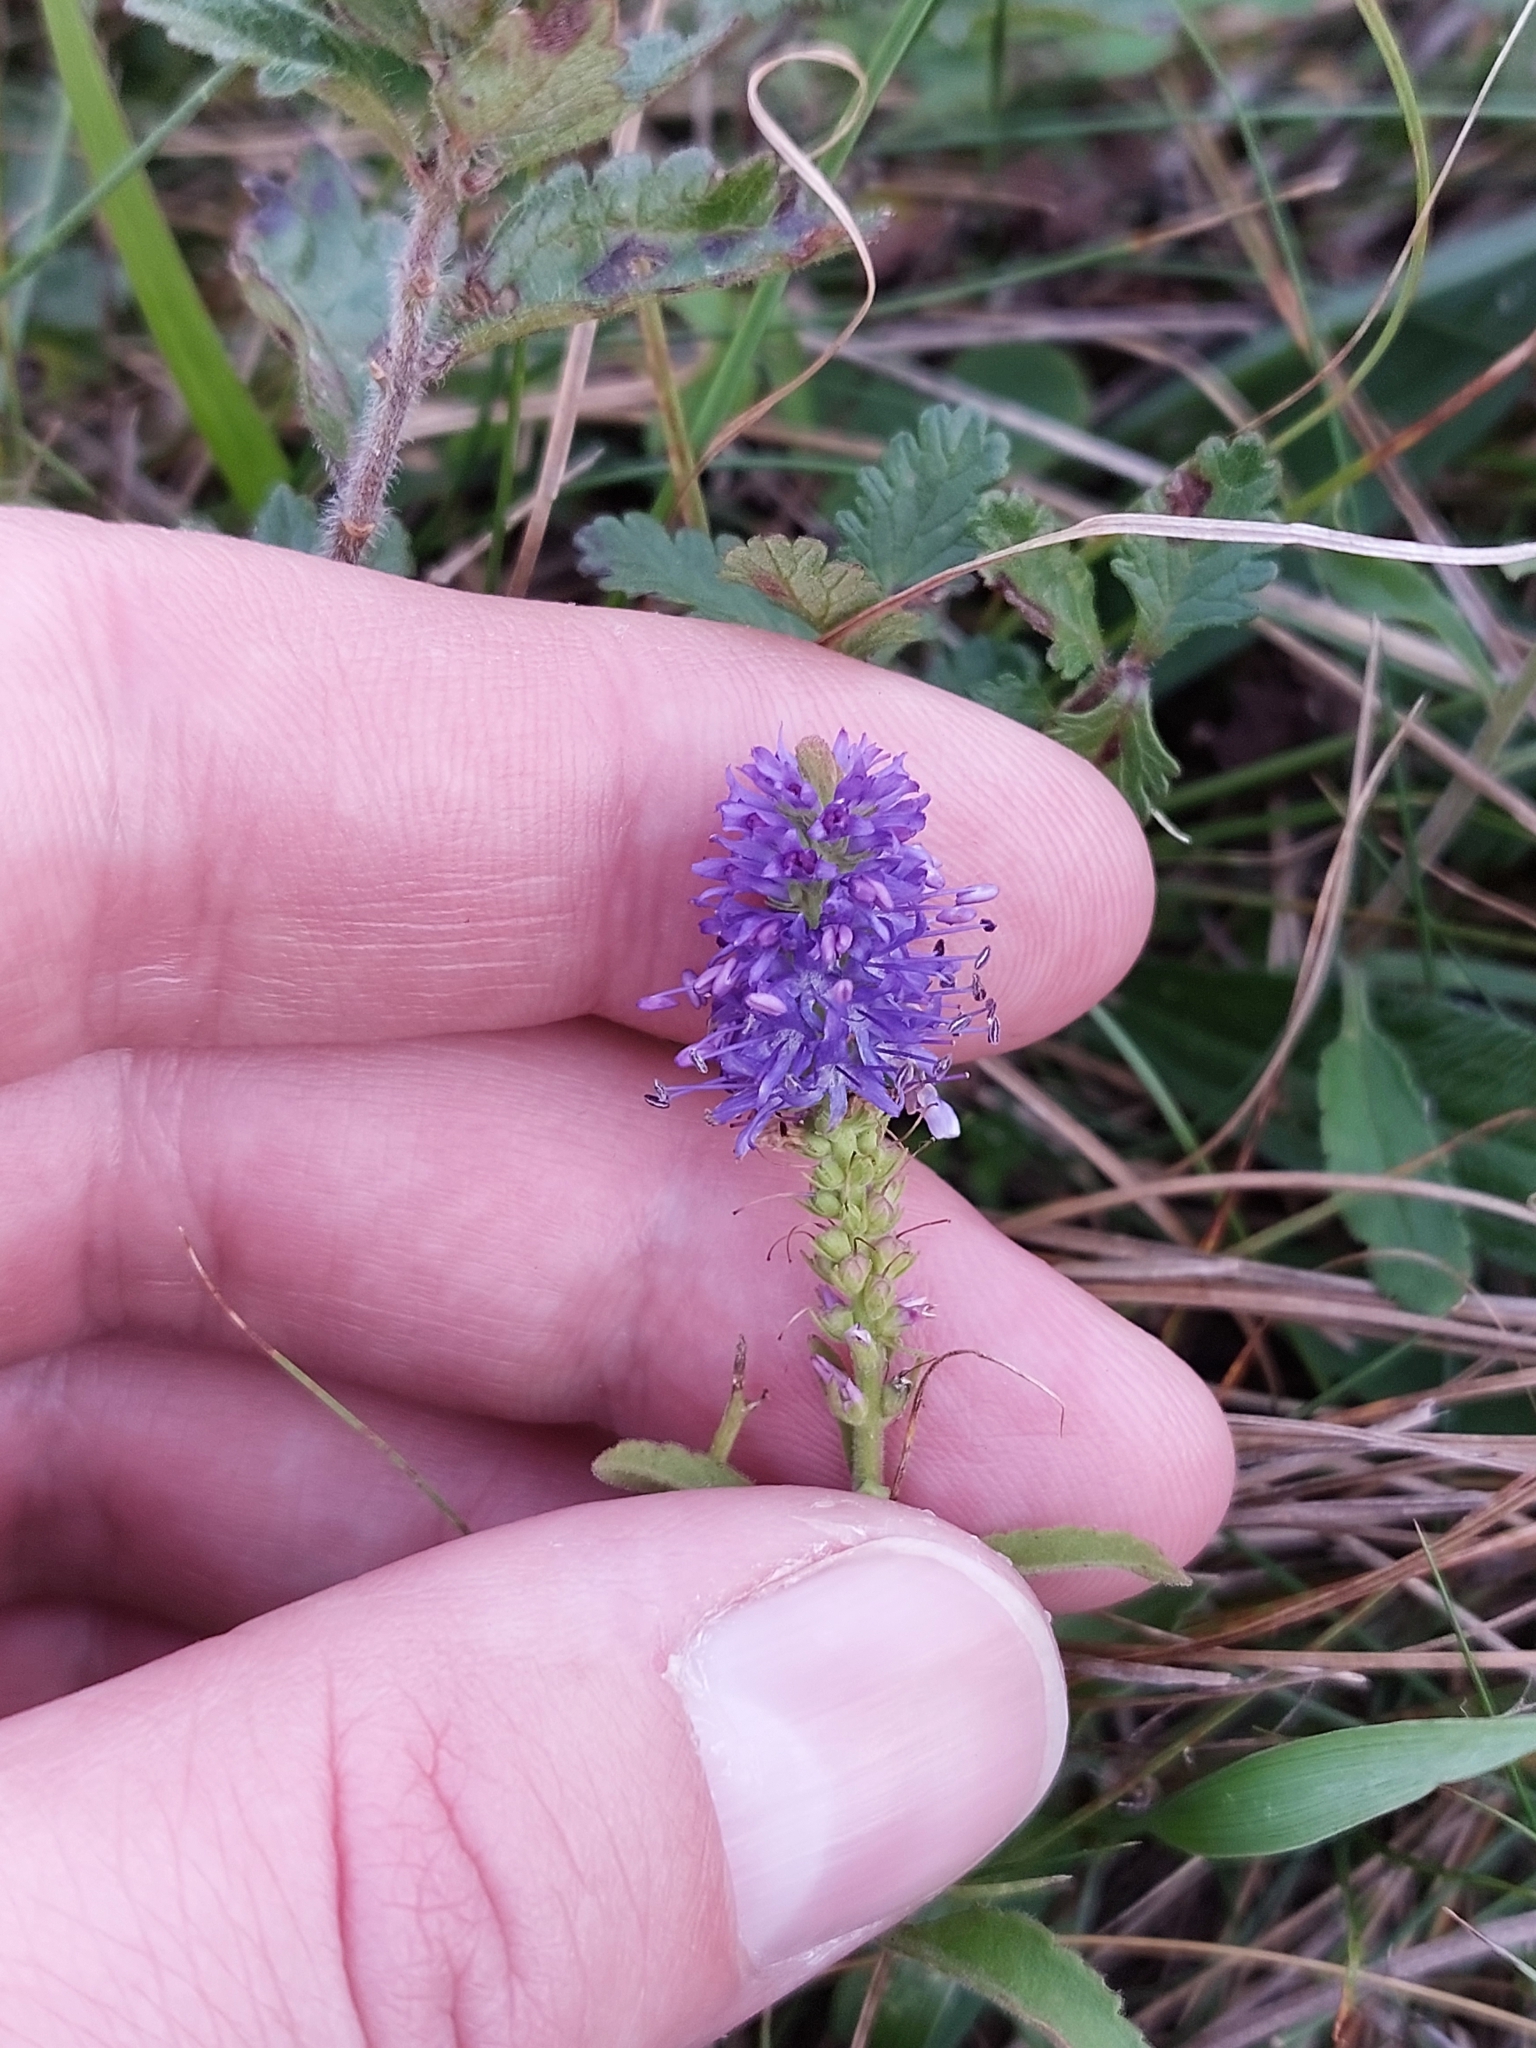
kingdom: Plantae
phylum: Tracheophyta
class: Magnoliopsida
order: Lamiales
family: Plantaginaceae
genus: Veronica
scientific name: Veronica spicata
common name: Spiked speedwell
